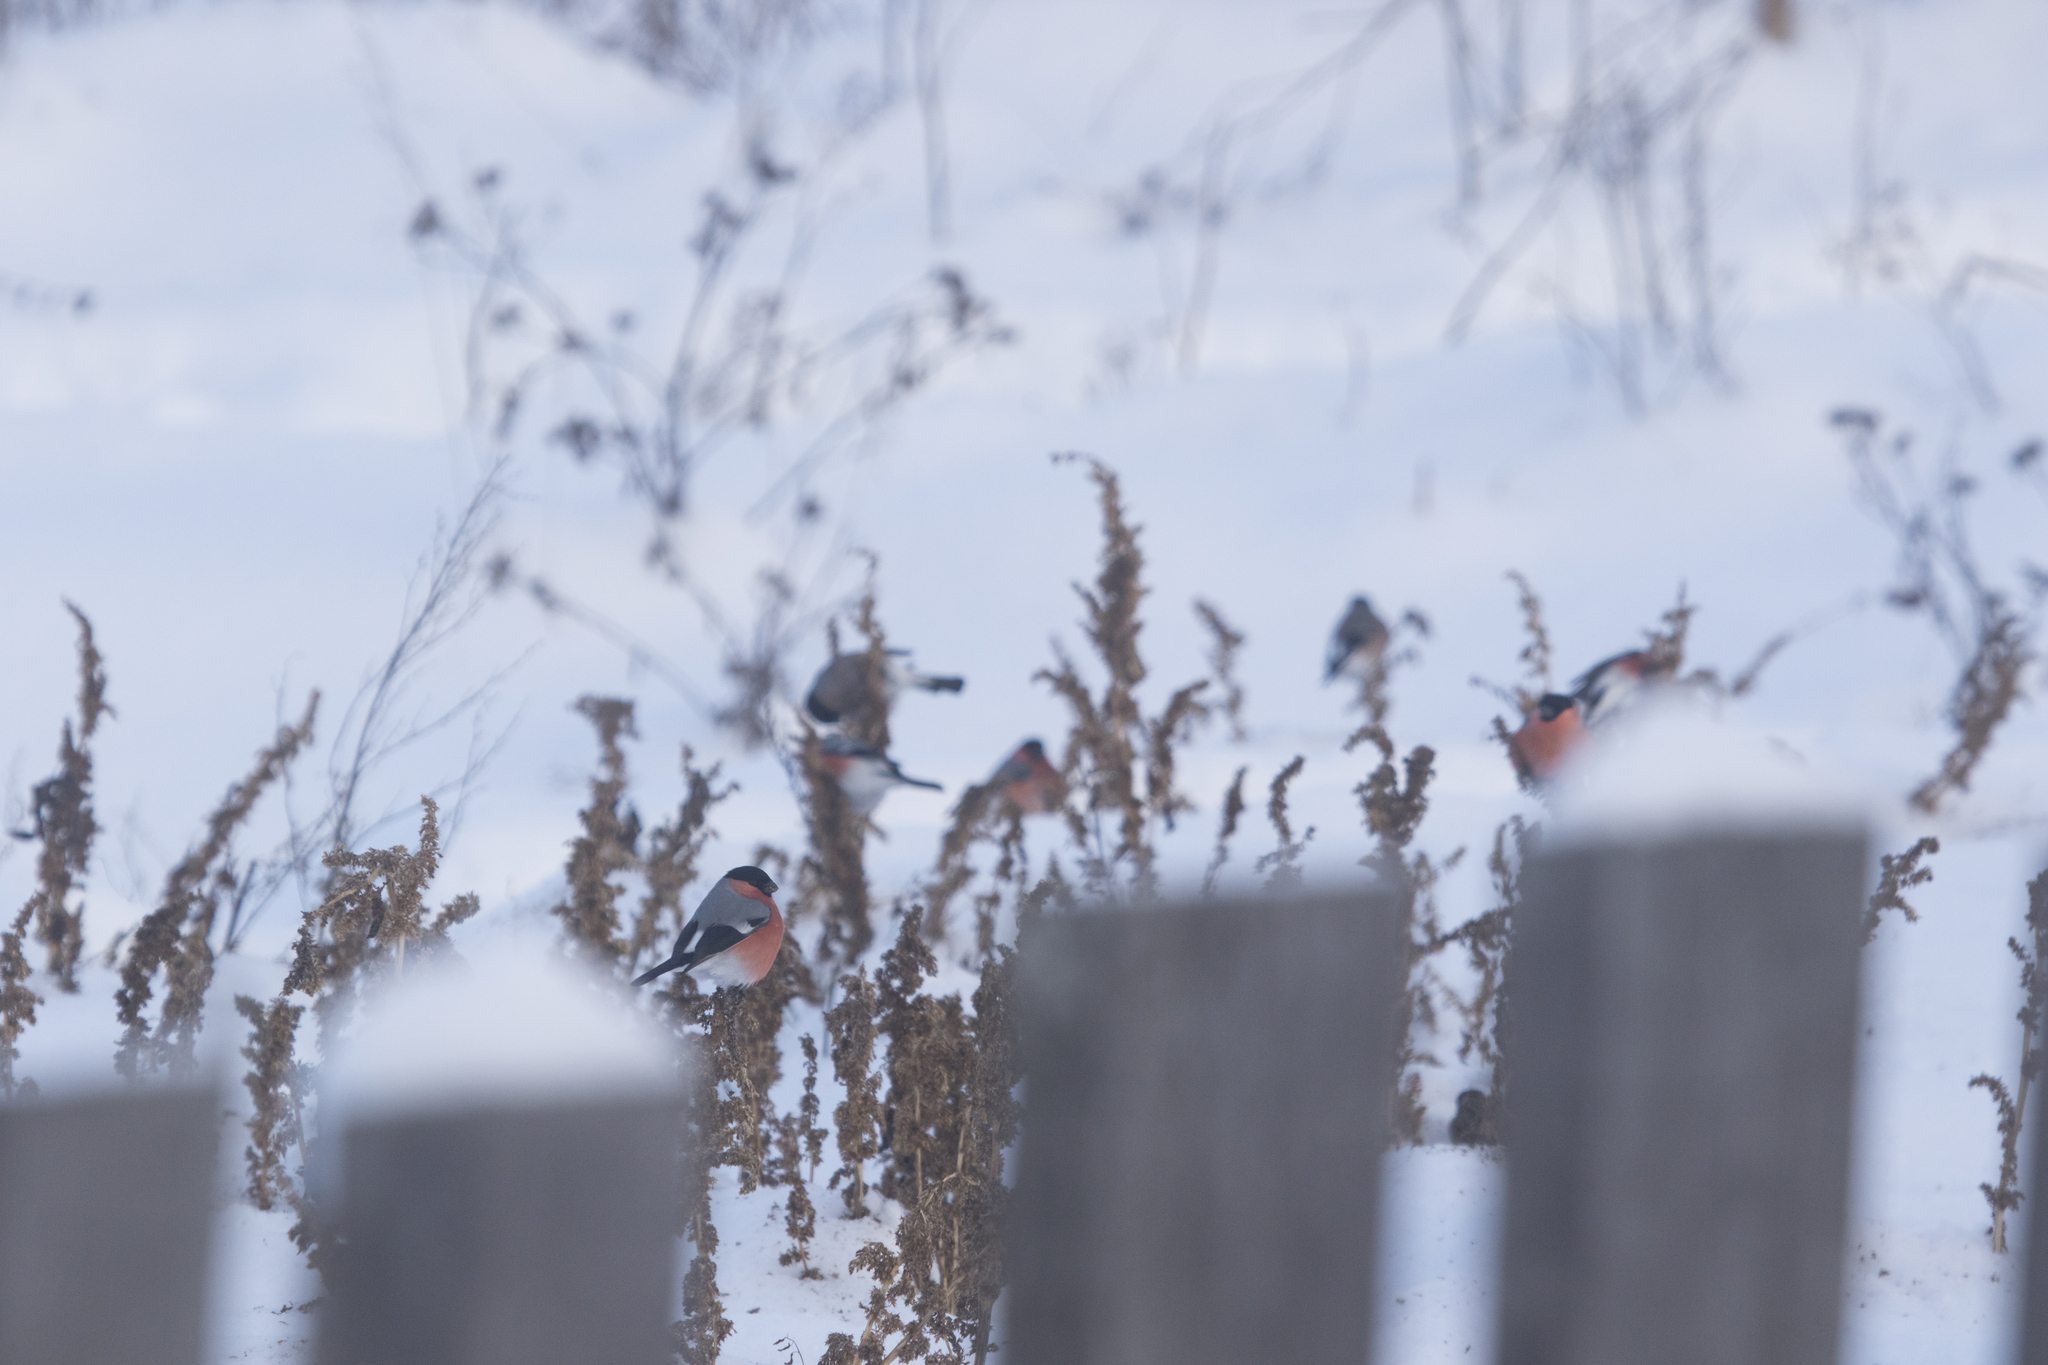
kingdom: Animalia
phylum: Chordata
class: Aves
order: Passeriformes
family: Fringillidae
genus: Pyrrhula
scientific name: Pyrrhula pyrrhula
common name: Eurasian bullfinch
